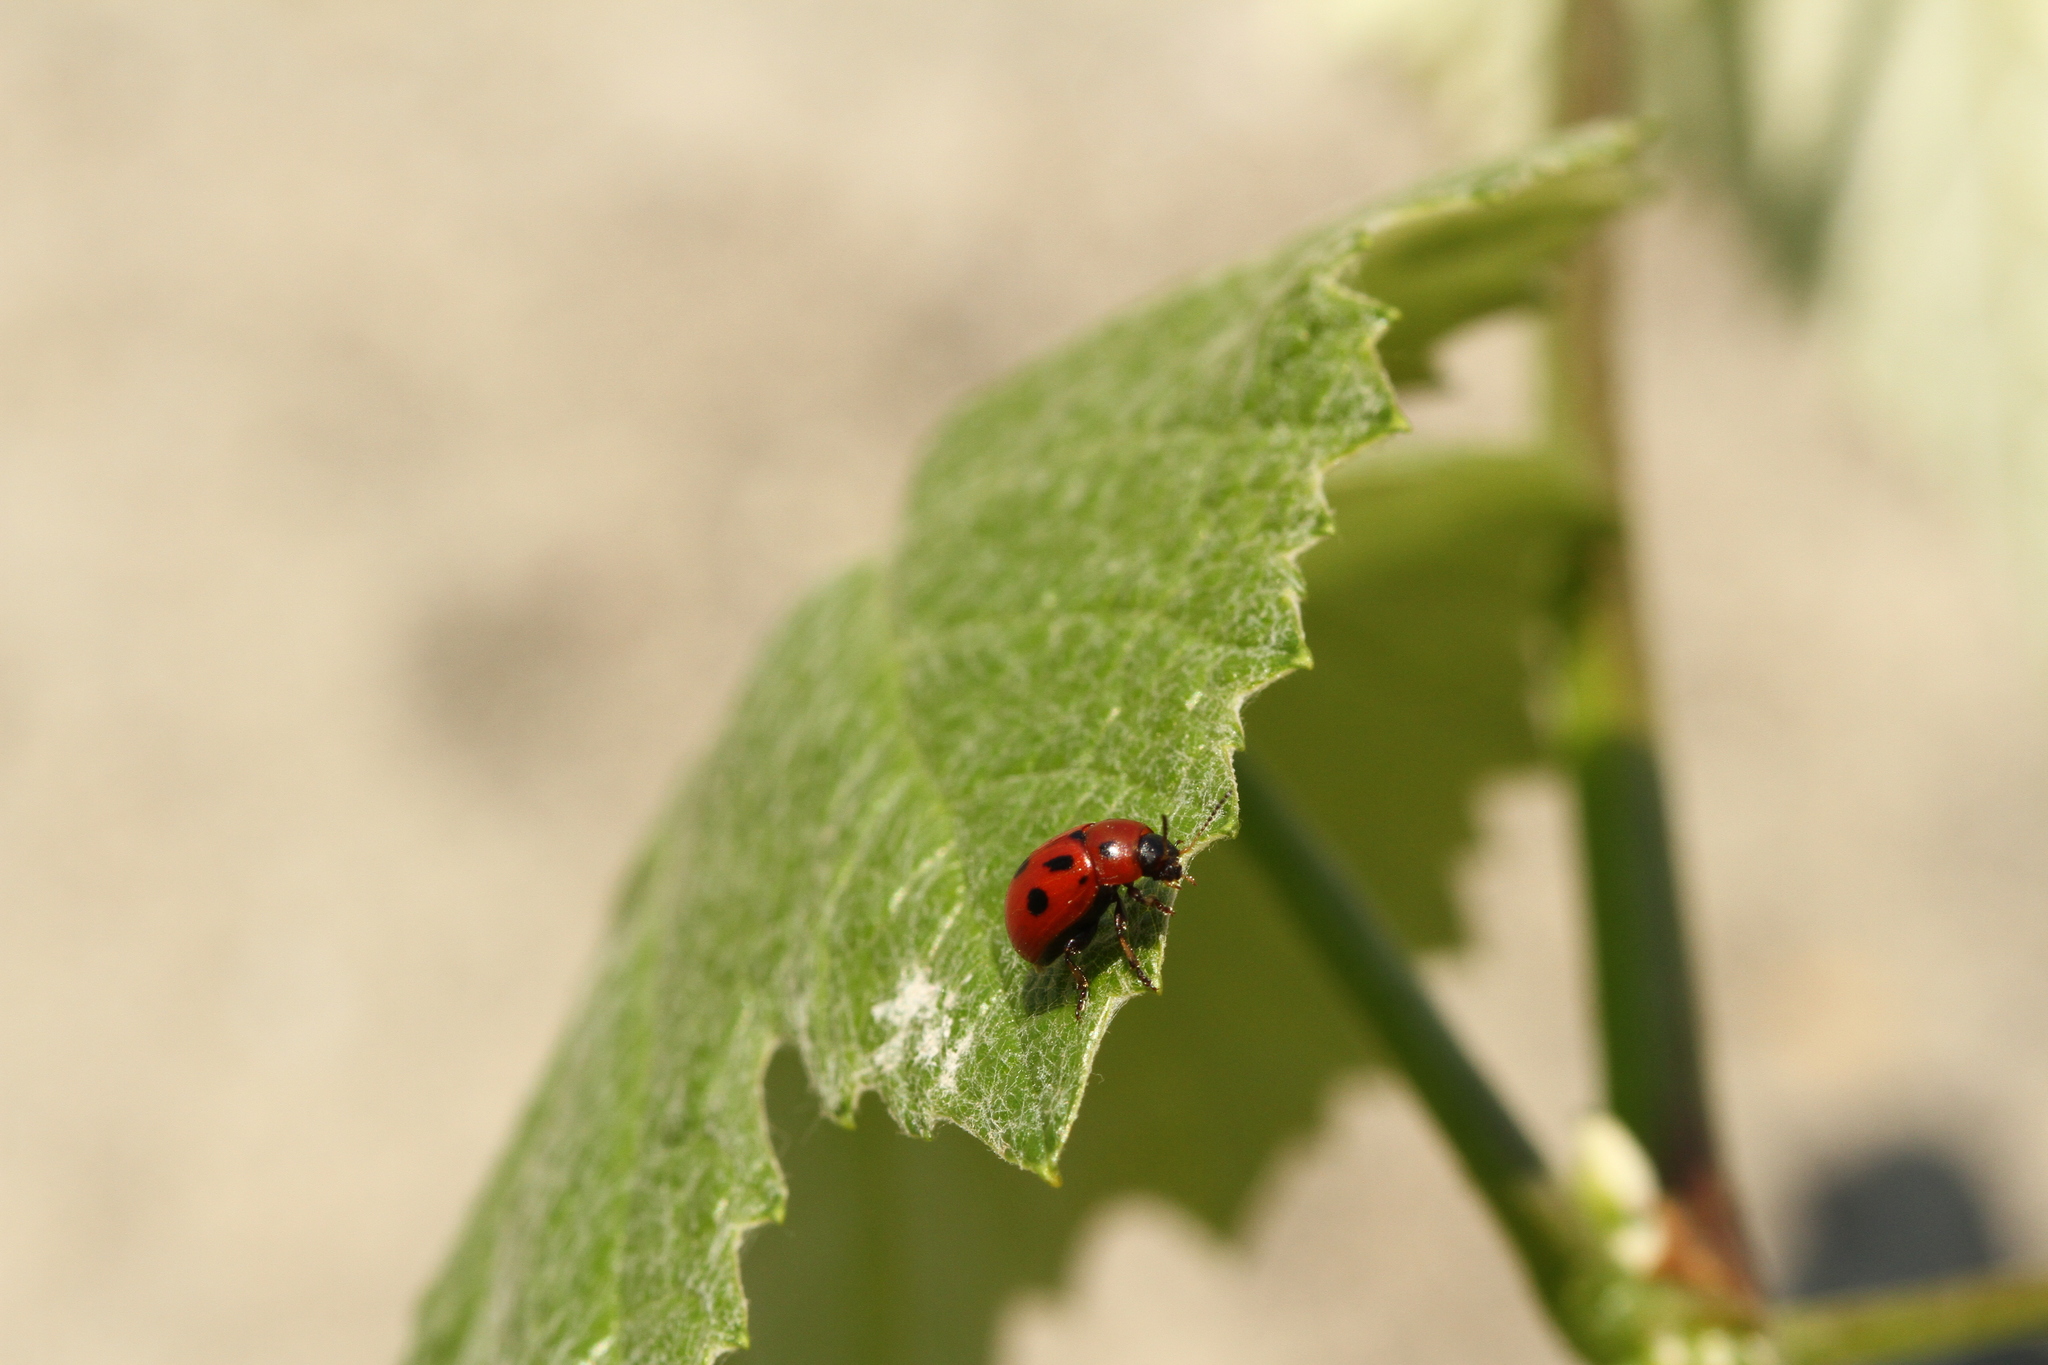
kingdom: Animalia
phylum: Arthropoda
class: Insecta
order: Coleoptera
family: Chrysomelidae
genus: Gonioctena
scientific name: Gonioctena fornicata
